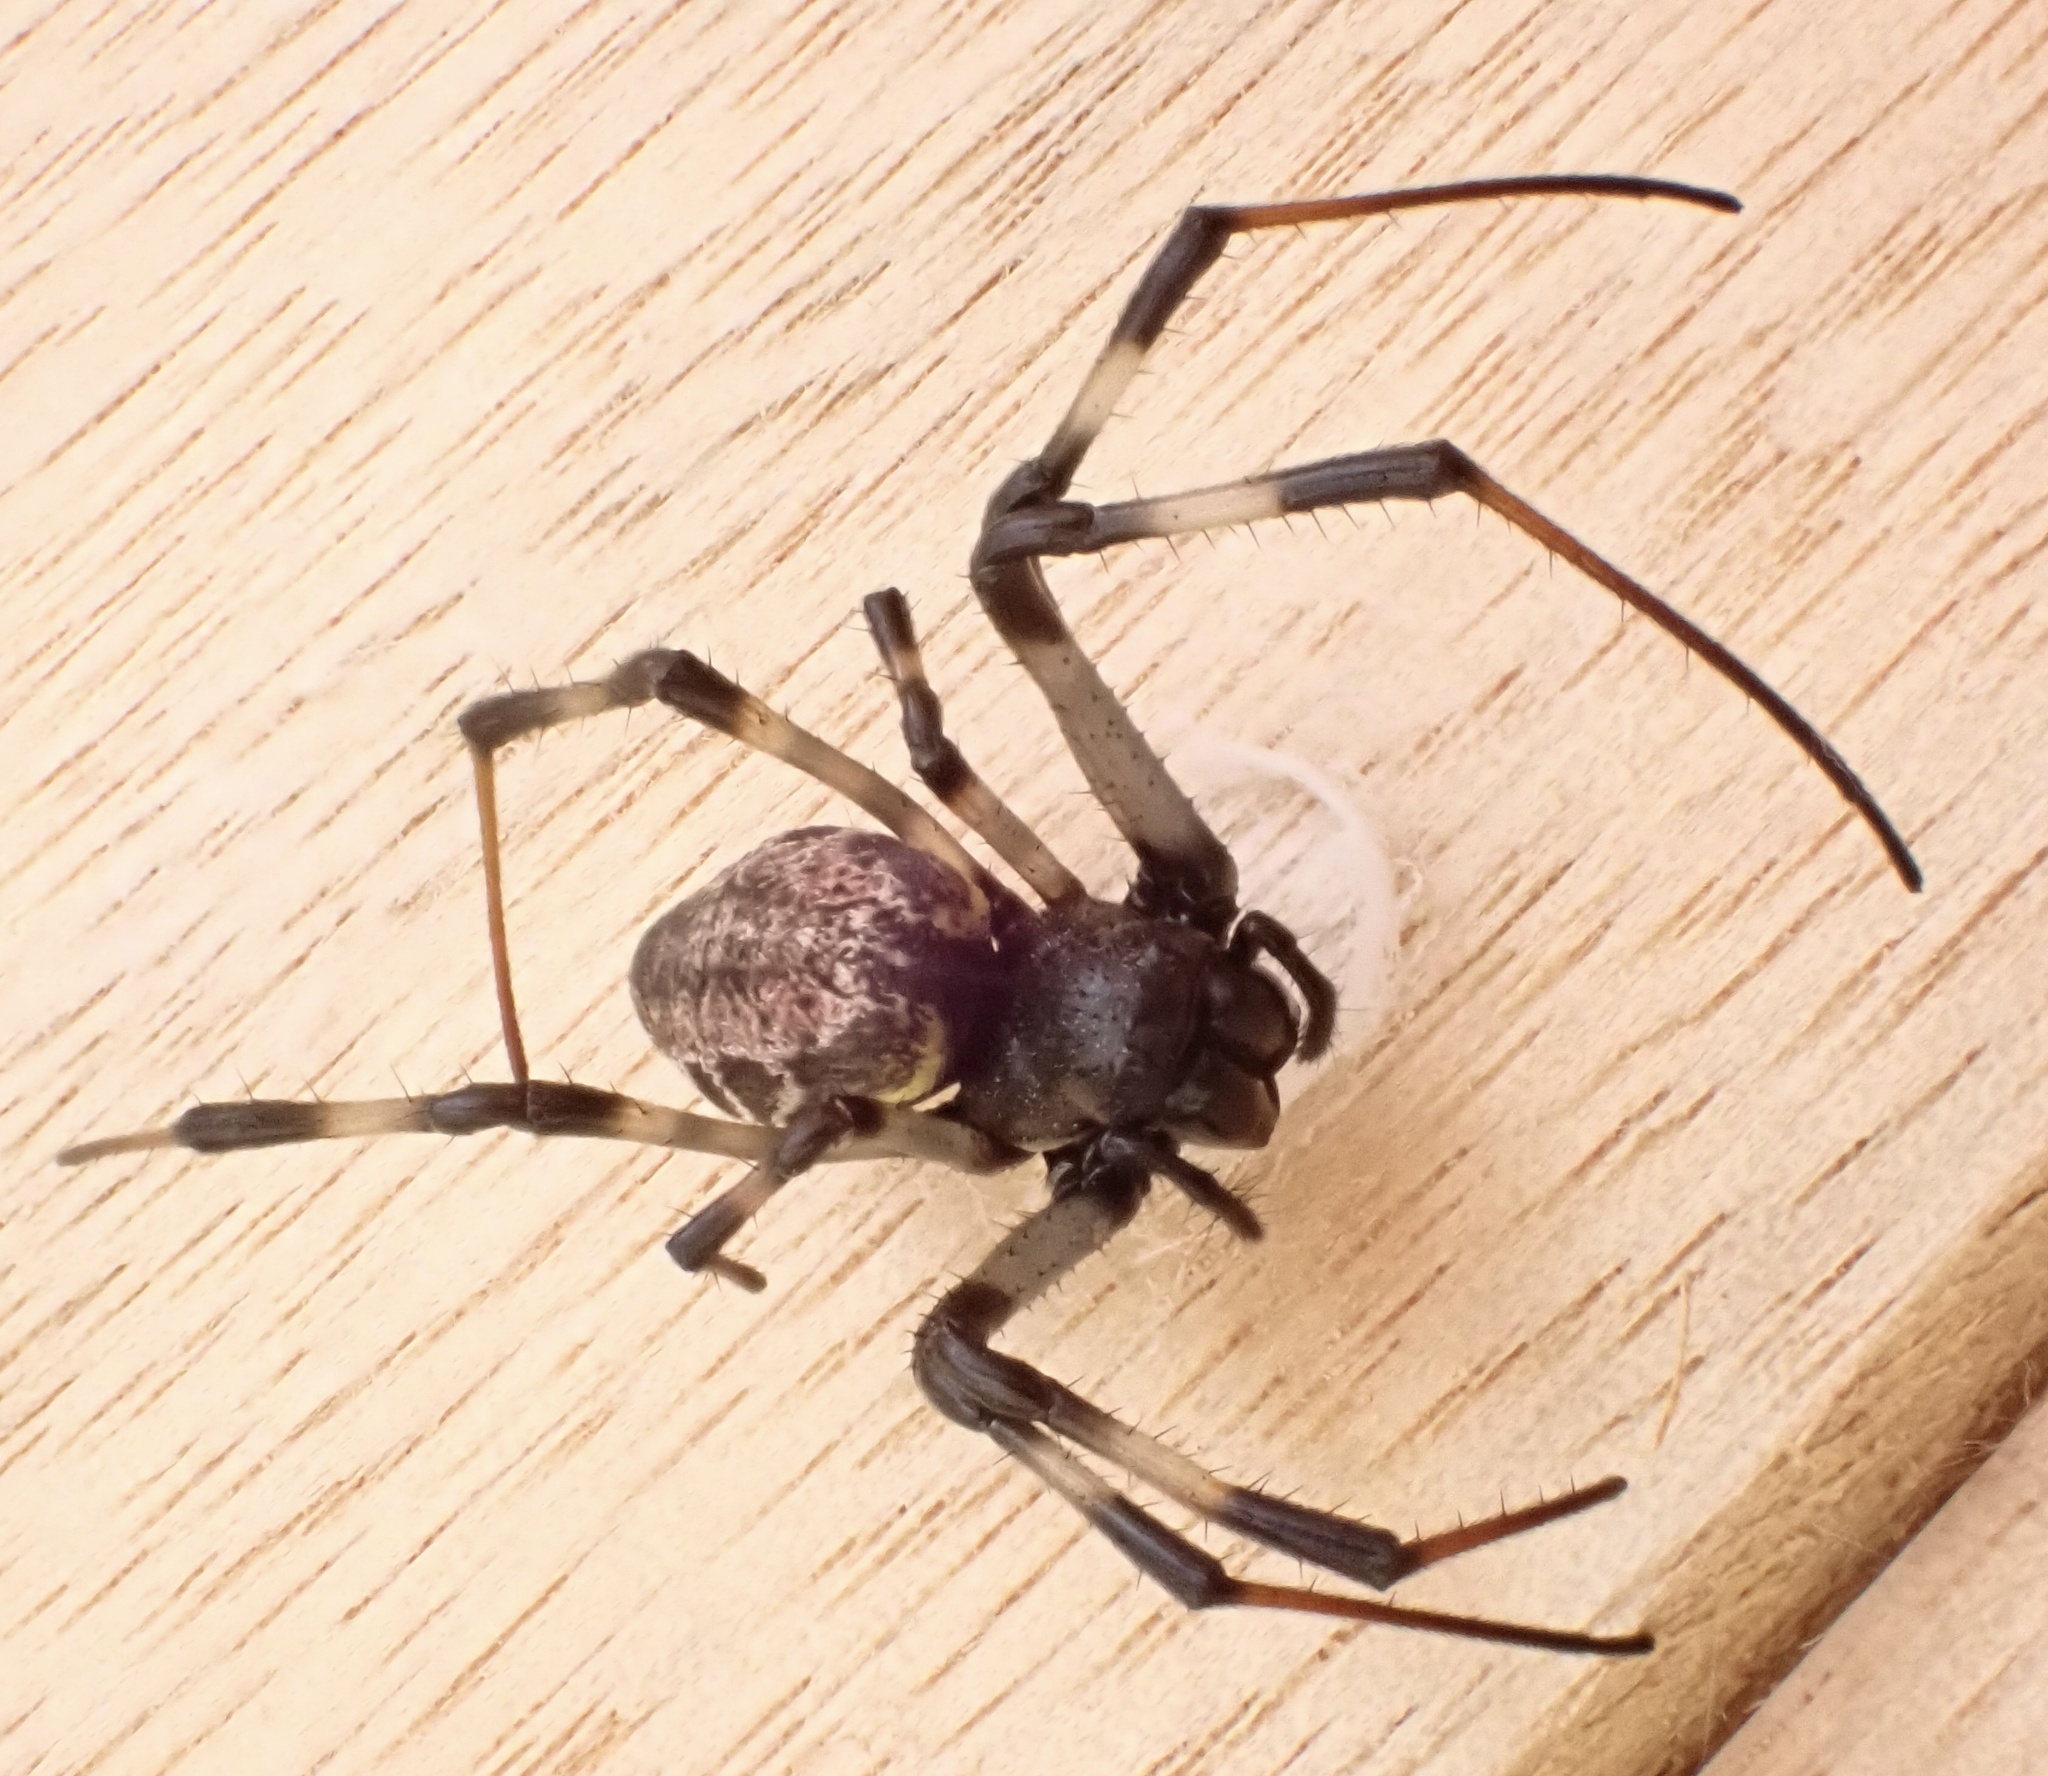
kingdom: Animalia
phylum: Arthropoda
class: Arachnida
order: Araneae
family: Araneidae
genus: Nephilengys
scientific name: Nephilengys malabarensis
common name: Asian hermit spider
